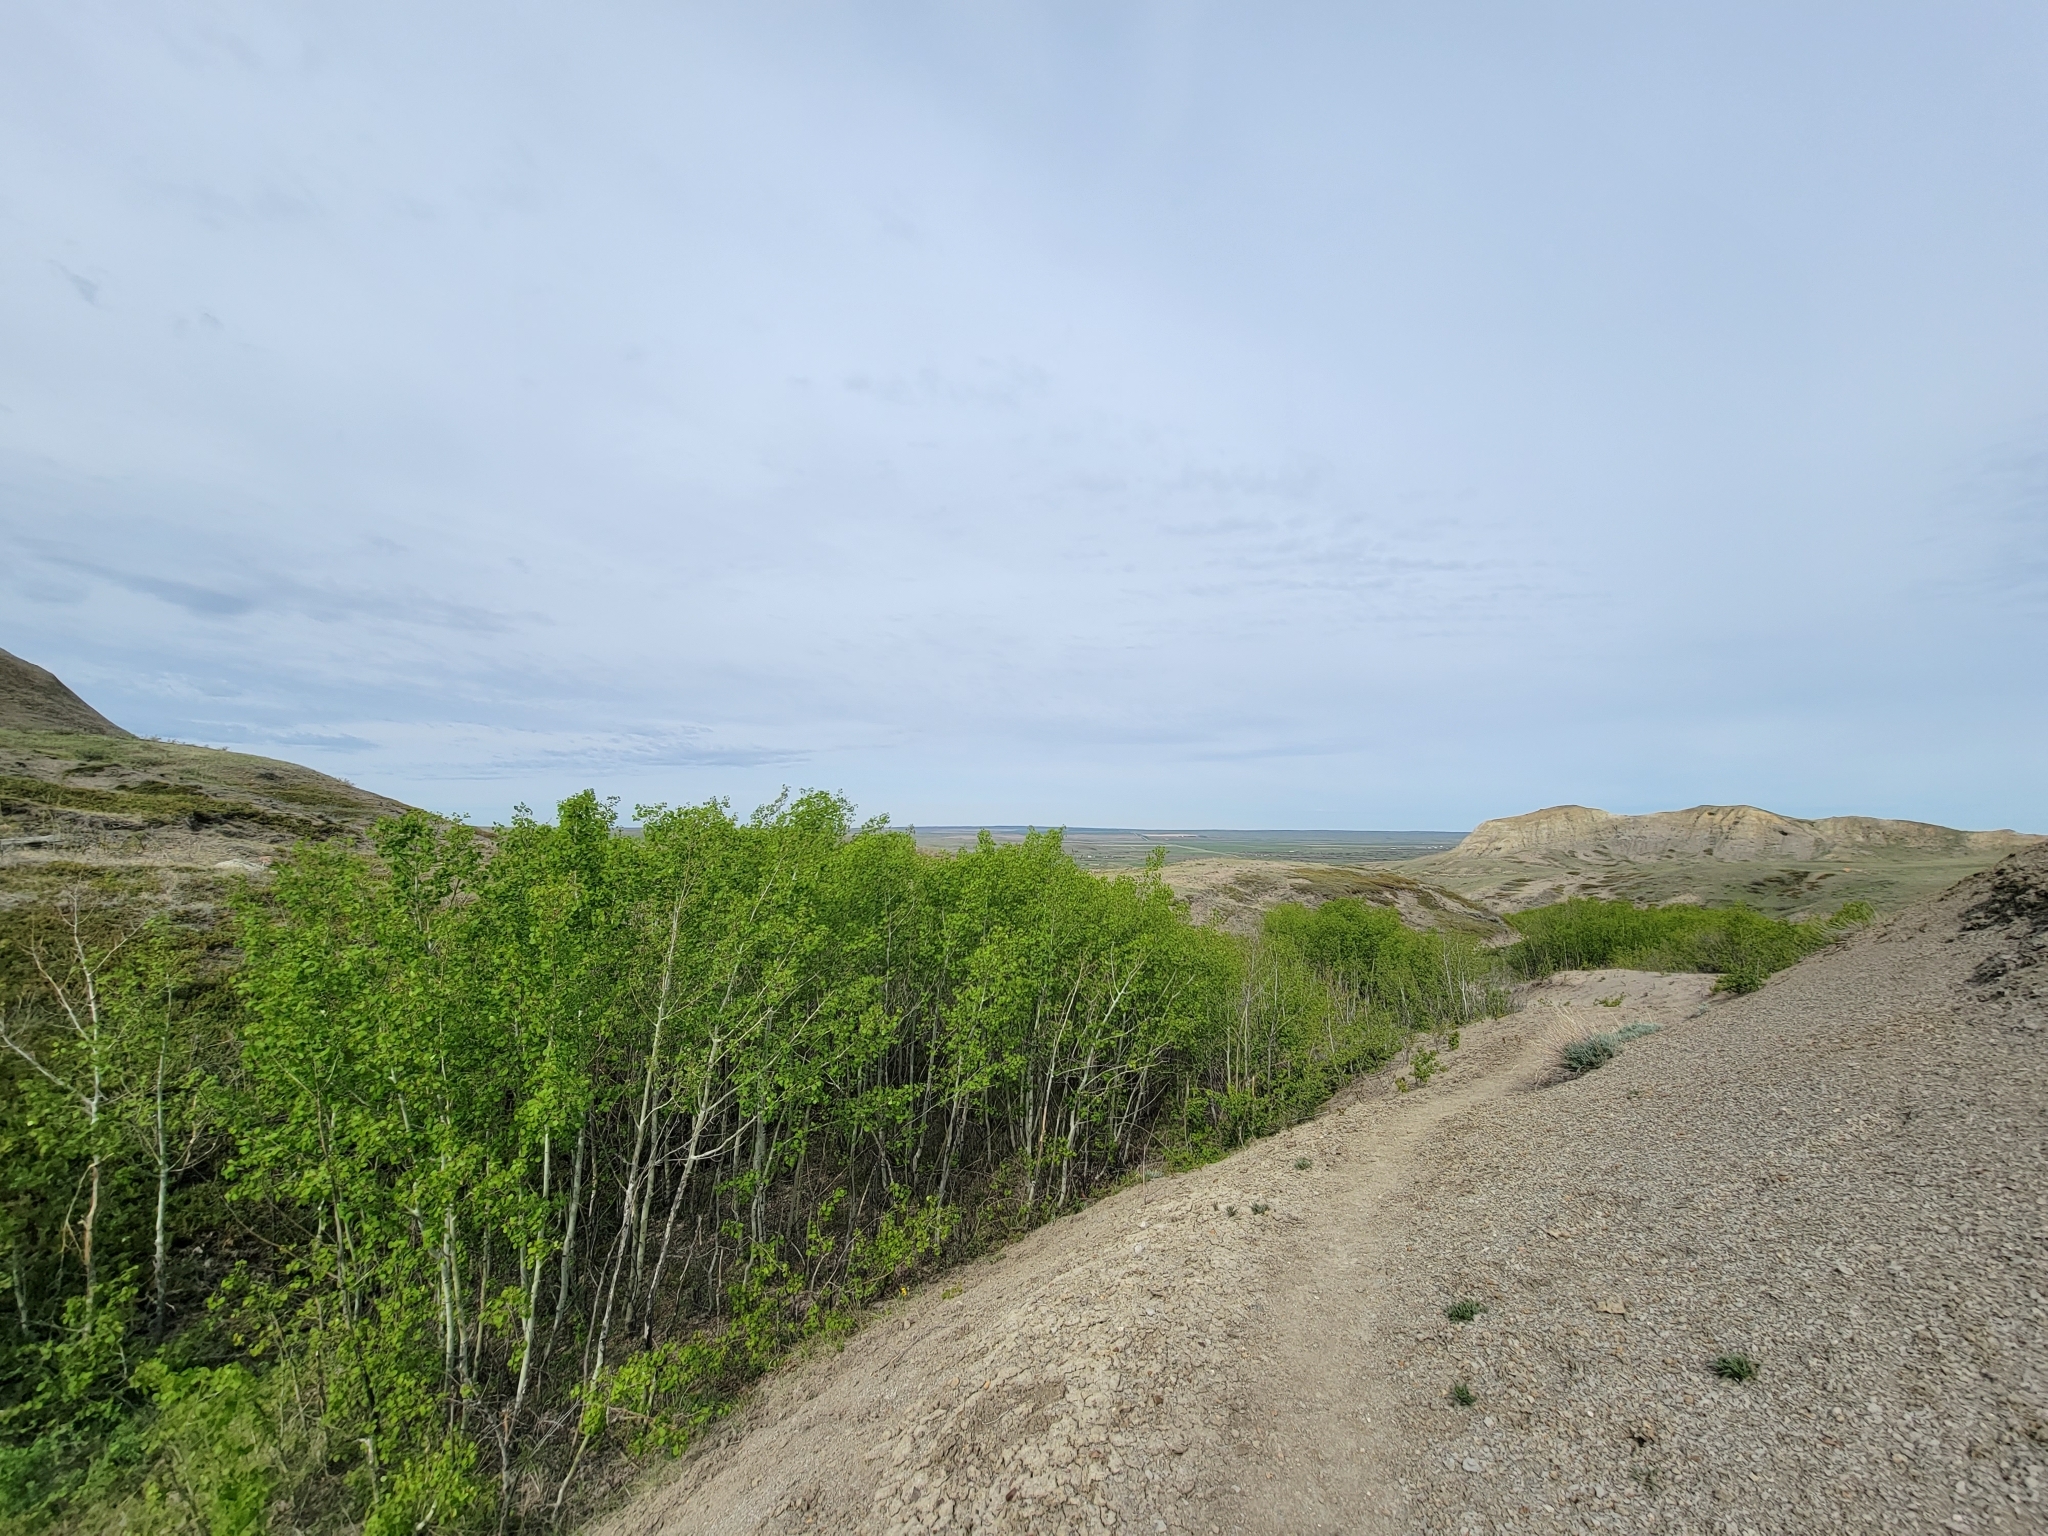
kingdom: Plantae
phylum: Tracheophyta
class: Magnoliopsida
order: Malpighiales
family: Salicaceae
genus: Populus
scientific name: Populus tremuloides
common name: Quaking aspen
